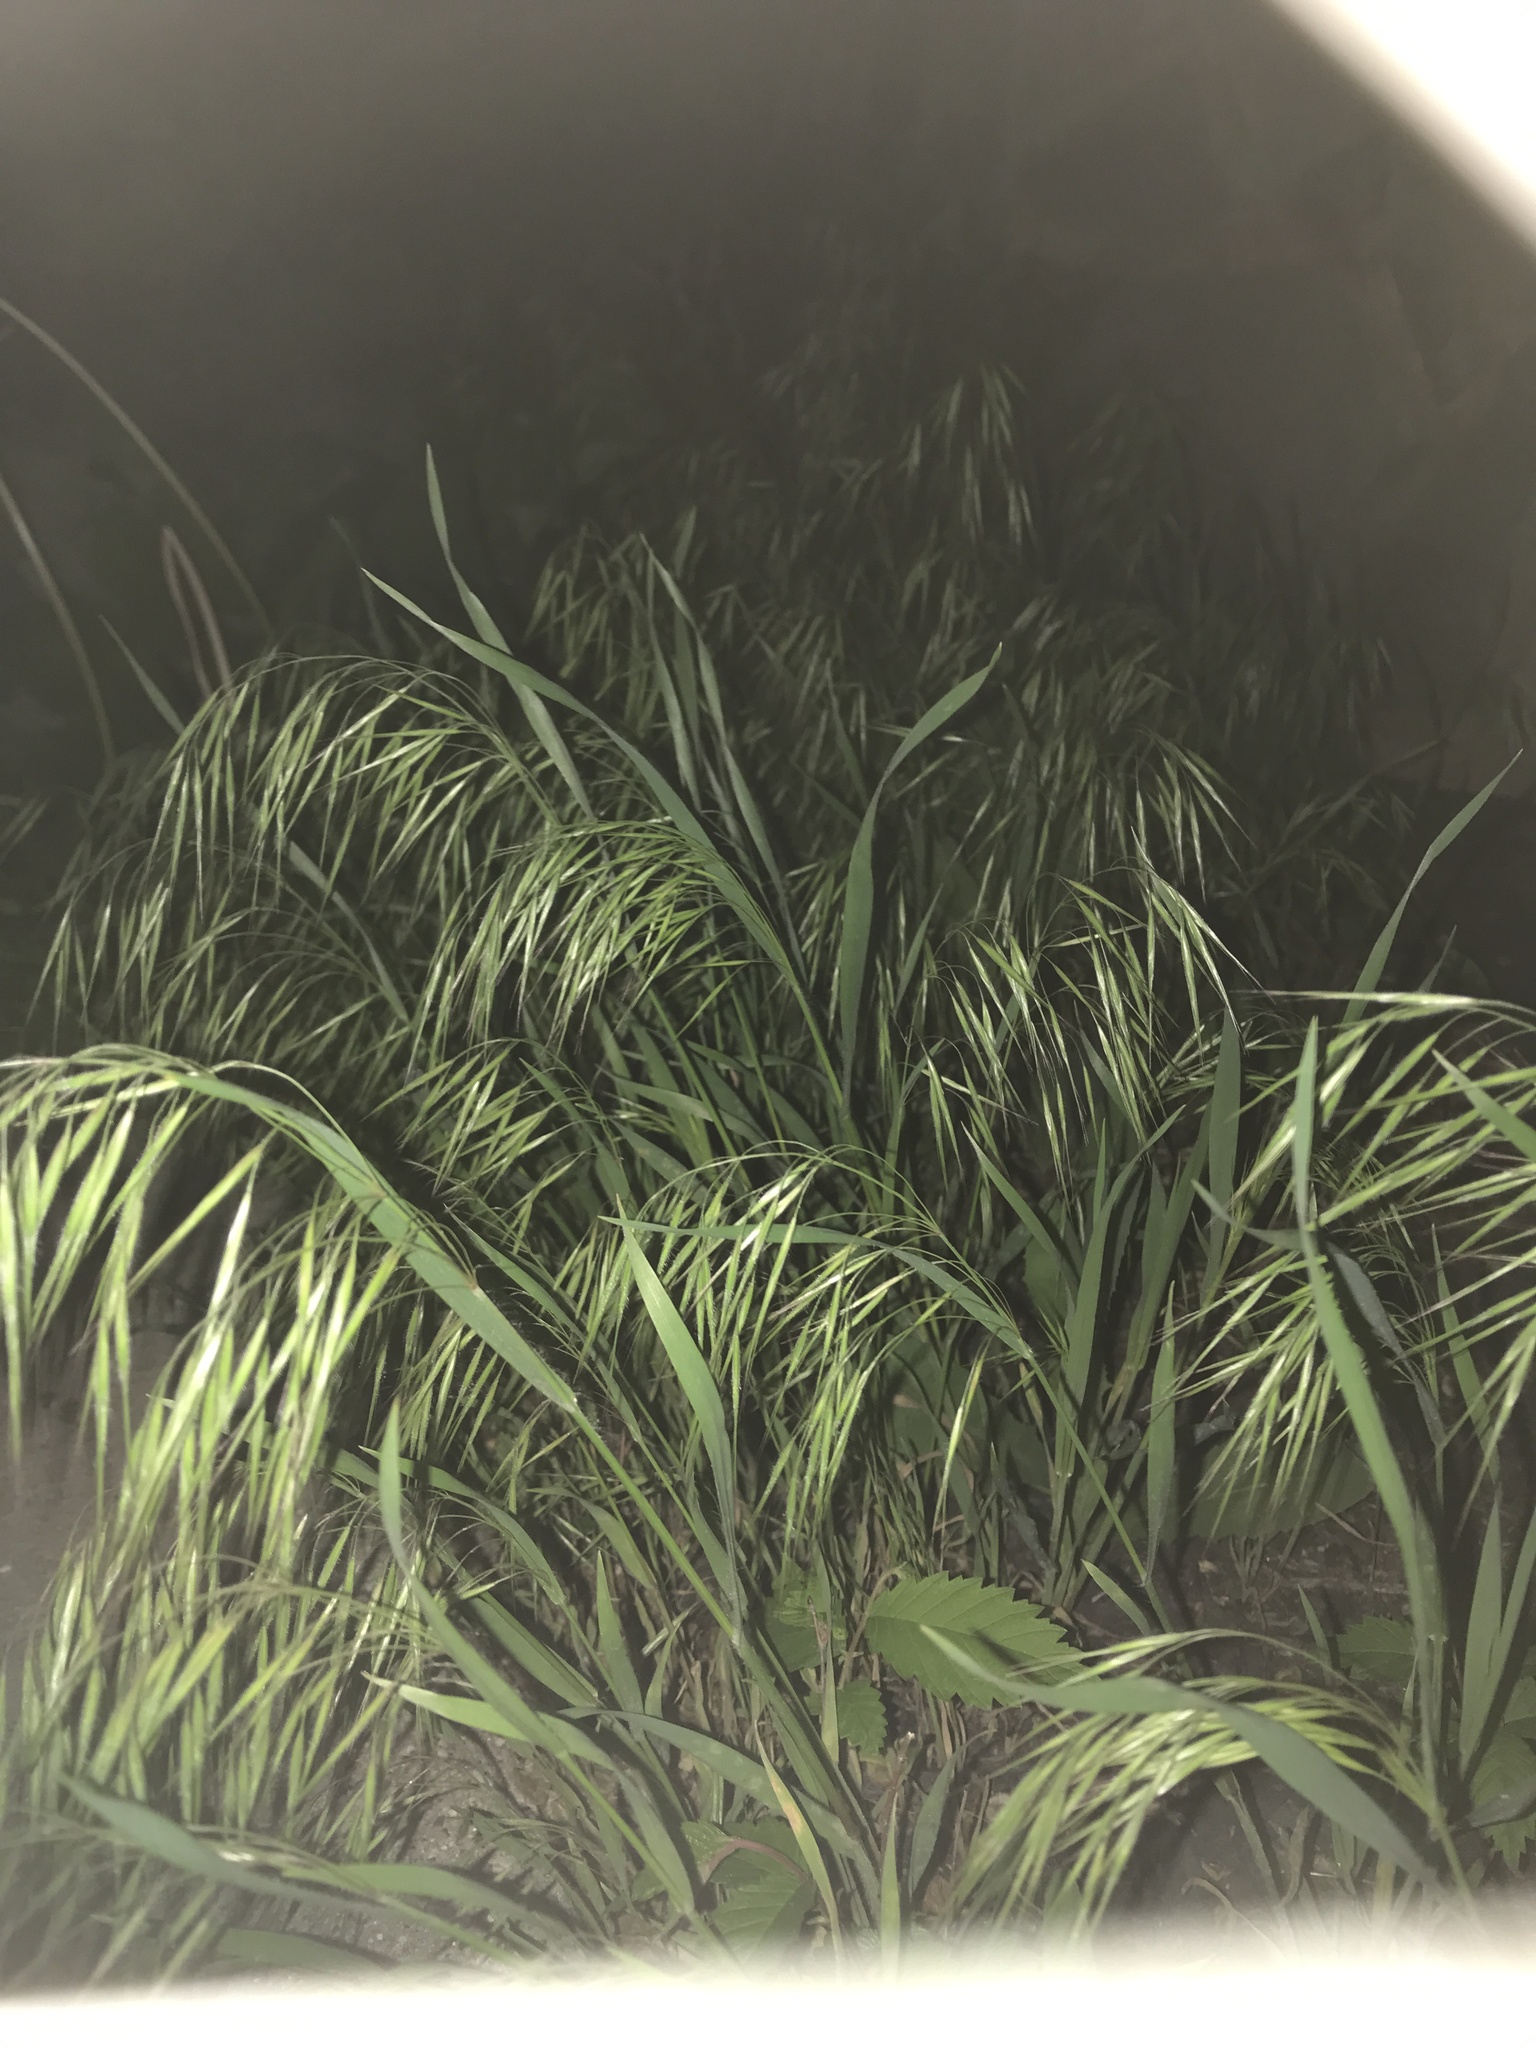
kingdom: Plantae
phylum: Tracheophyta
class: Liliopsida
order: Poales
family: Poaceae
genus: Bromus
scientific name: Bromus tectorum
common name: Cheatgrass
